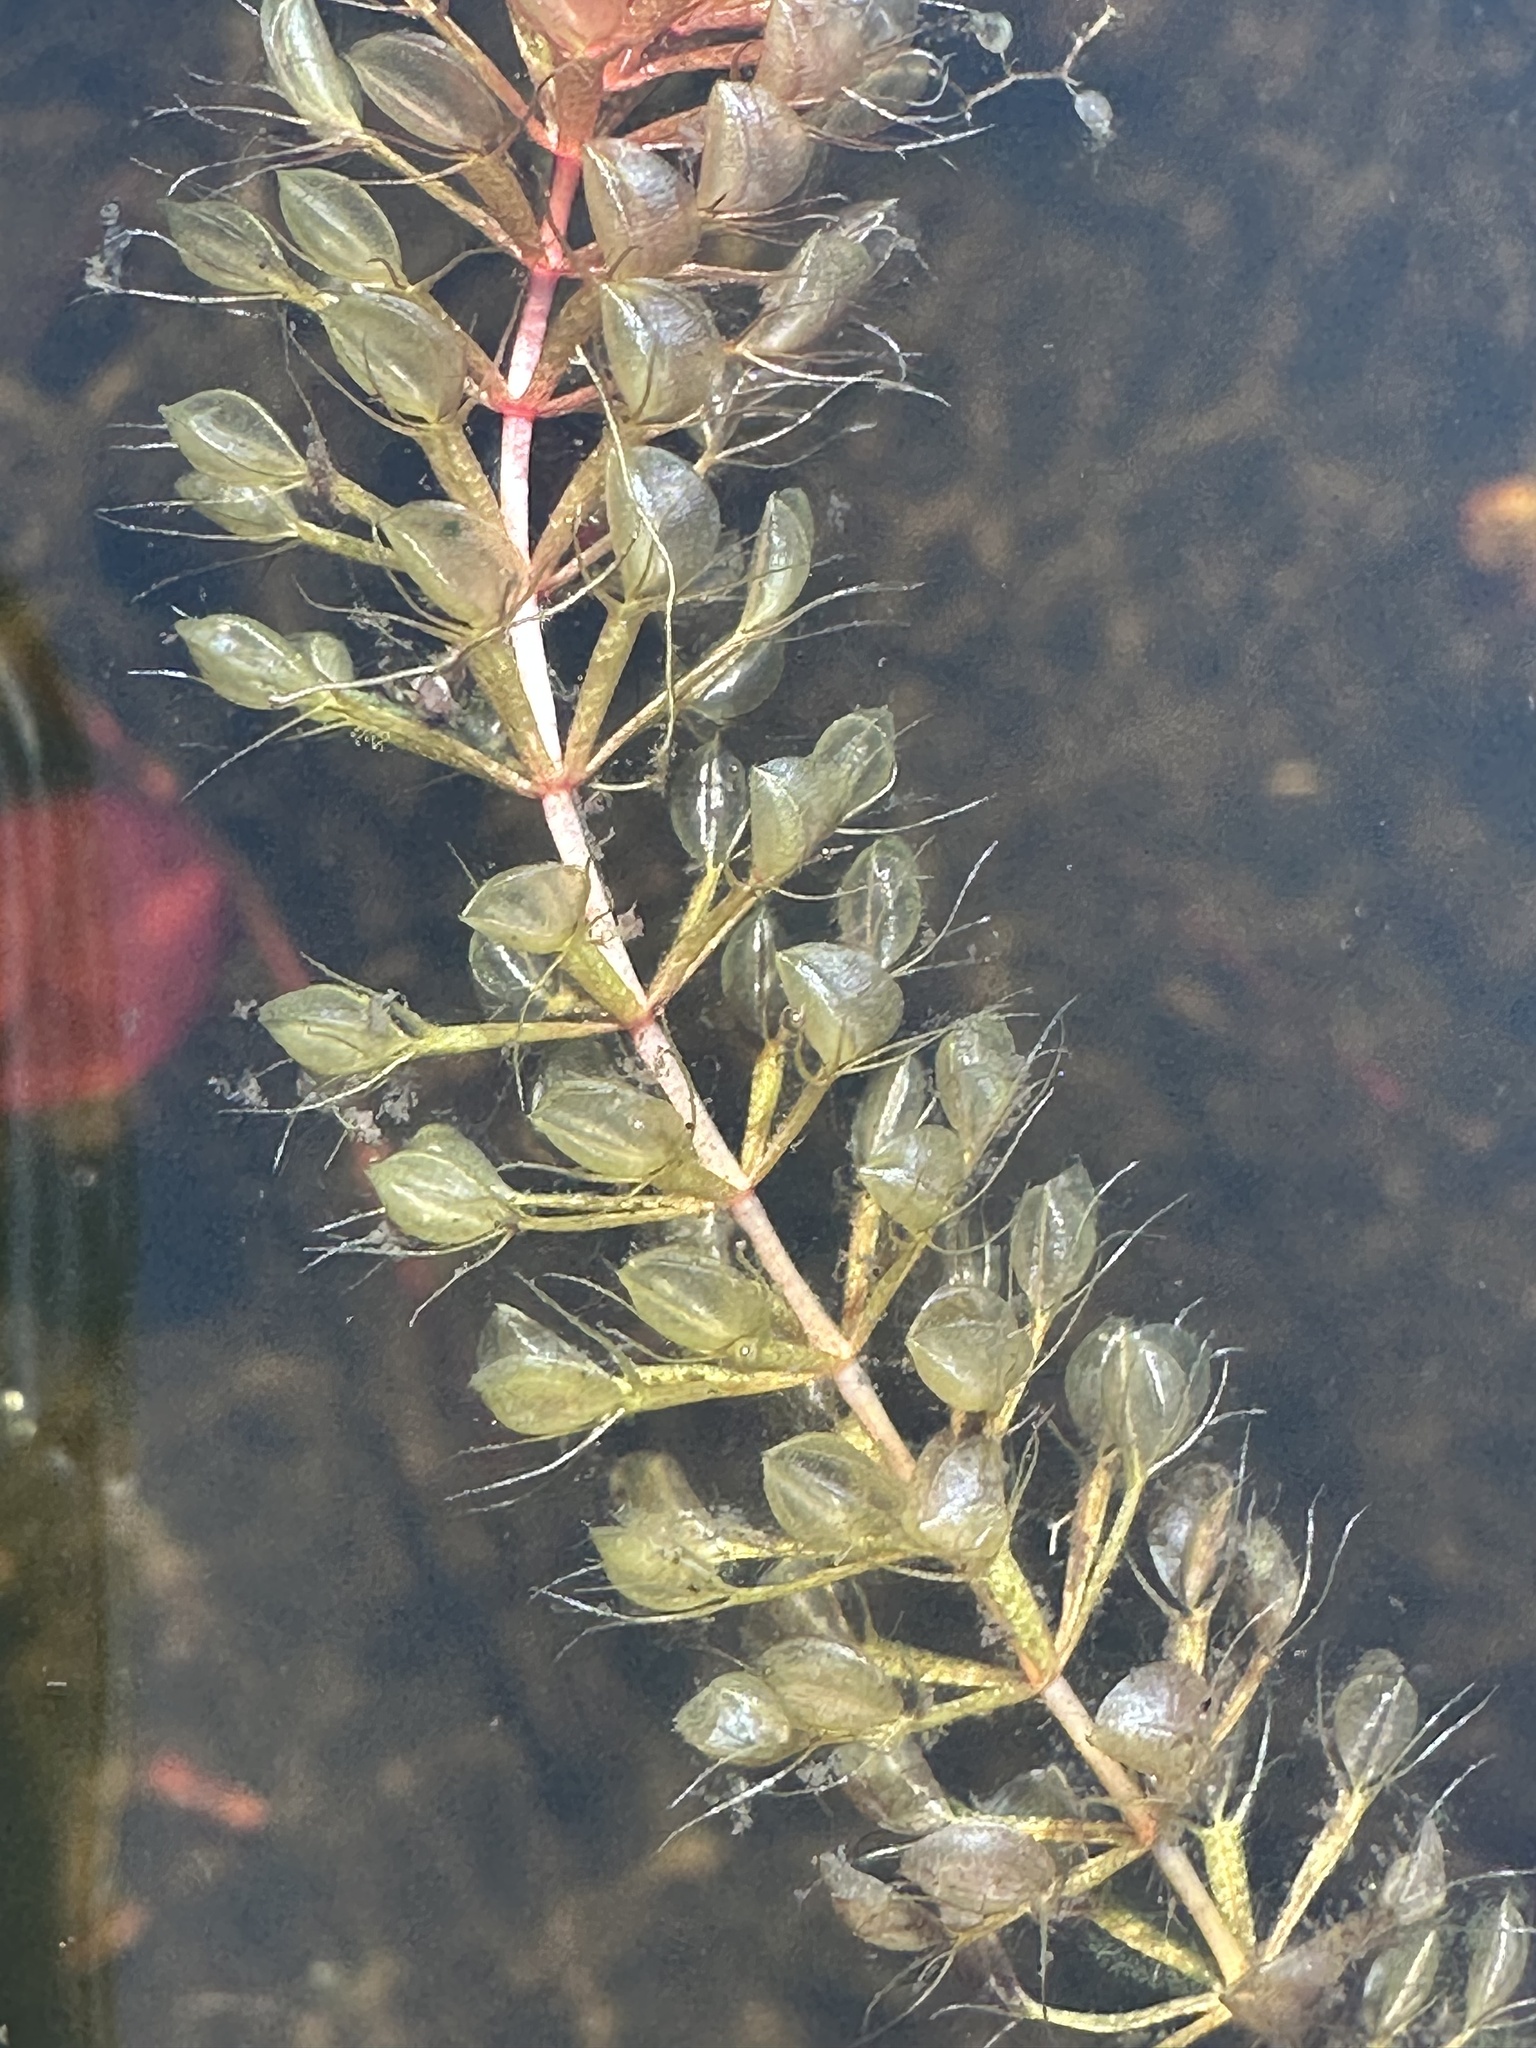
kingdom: Plantae
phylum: Tracheophyta
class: Magnoliopsida
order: Caryophyllales
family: Droseraceae
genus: Aldrovanda
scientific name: Aldrovanda vesiculosa
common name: Waterwheel plant
